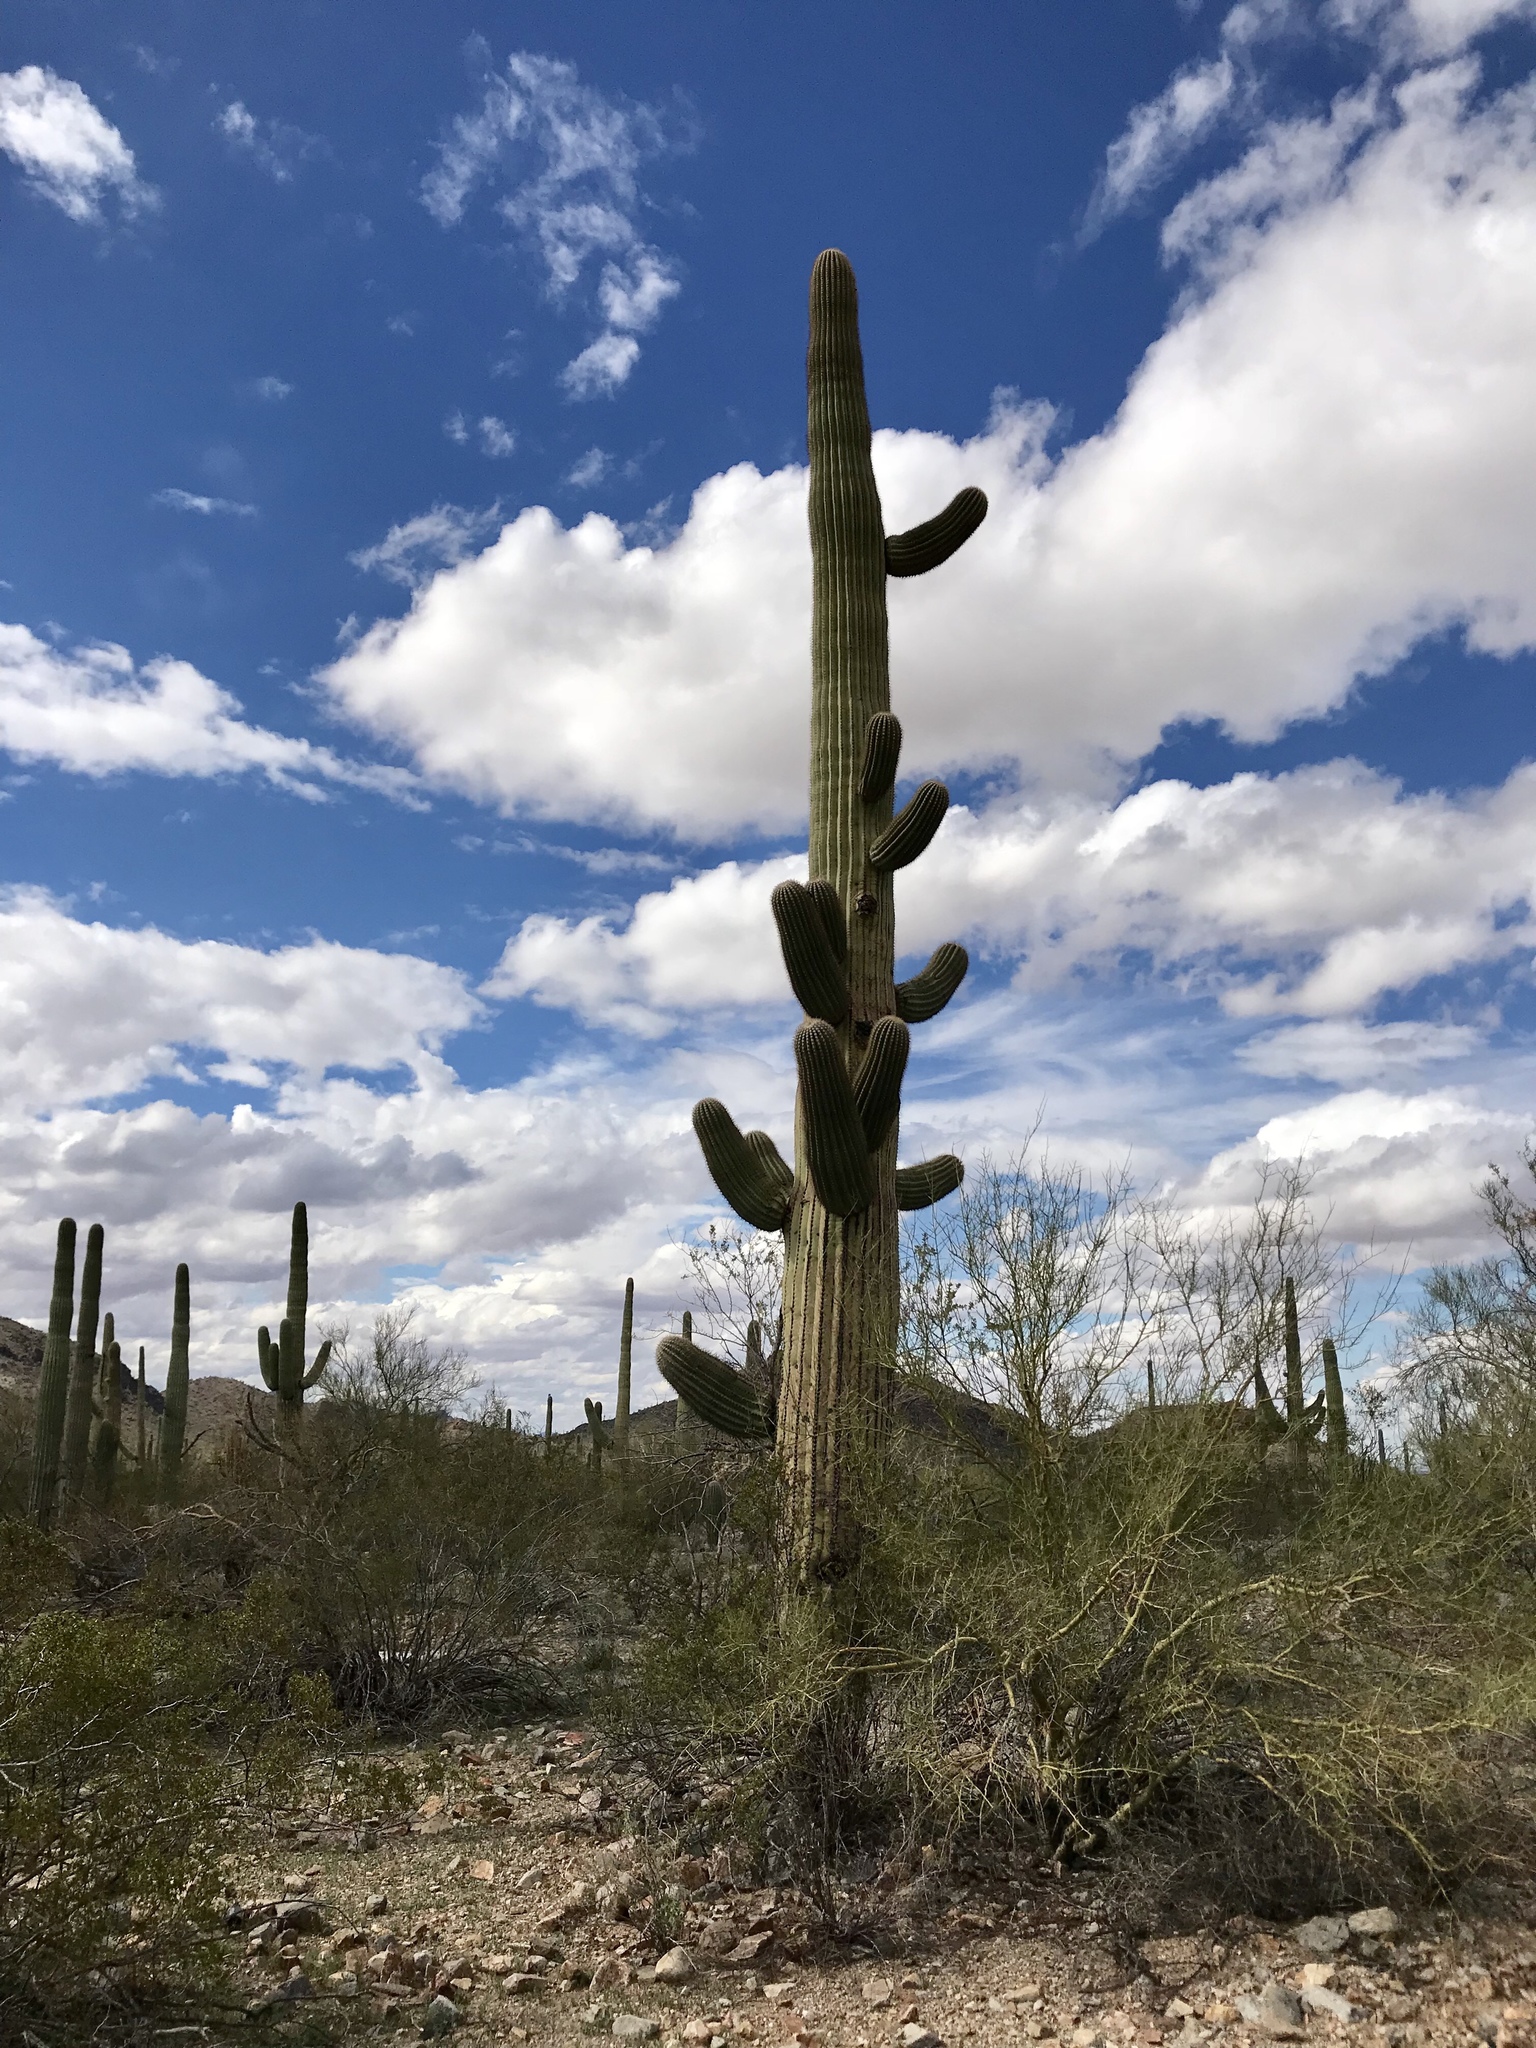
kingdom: Plantae
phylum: Tracheophyta
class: Magnoliopsida
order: Caryophyllales
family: Cactaceae
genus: Carnegiea
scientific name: Carnegiea gigantea
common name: Saguaro
